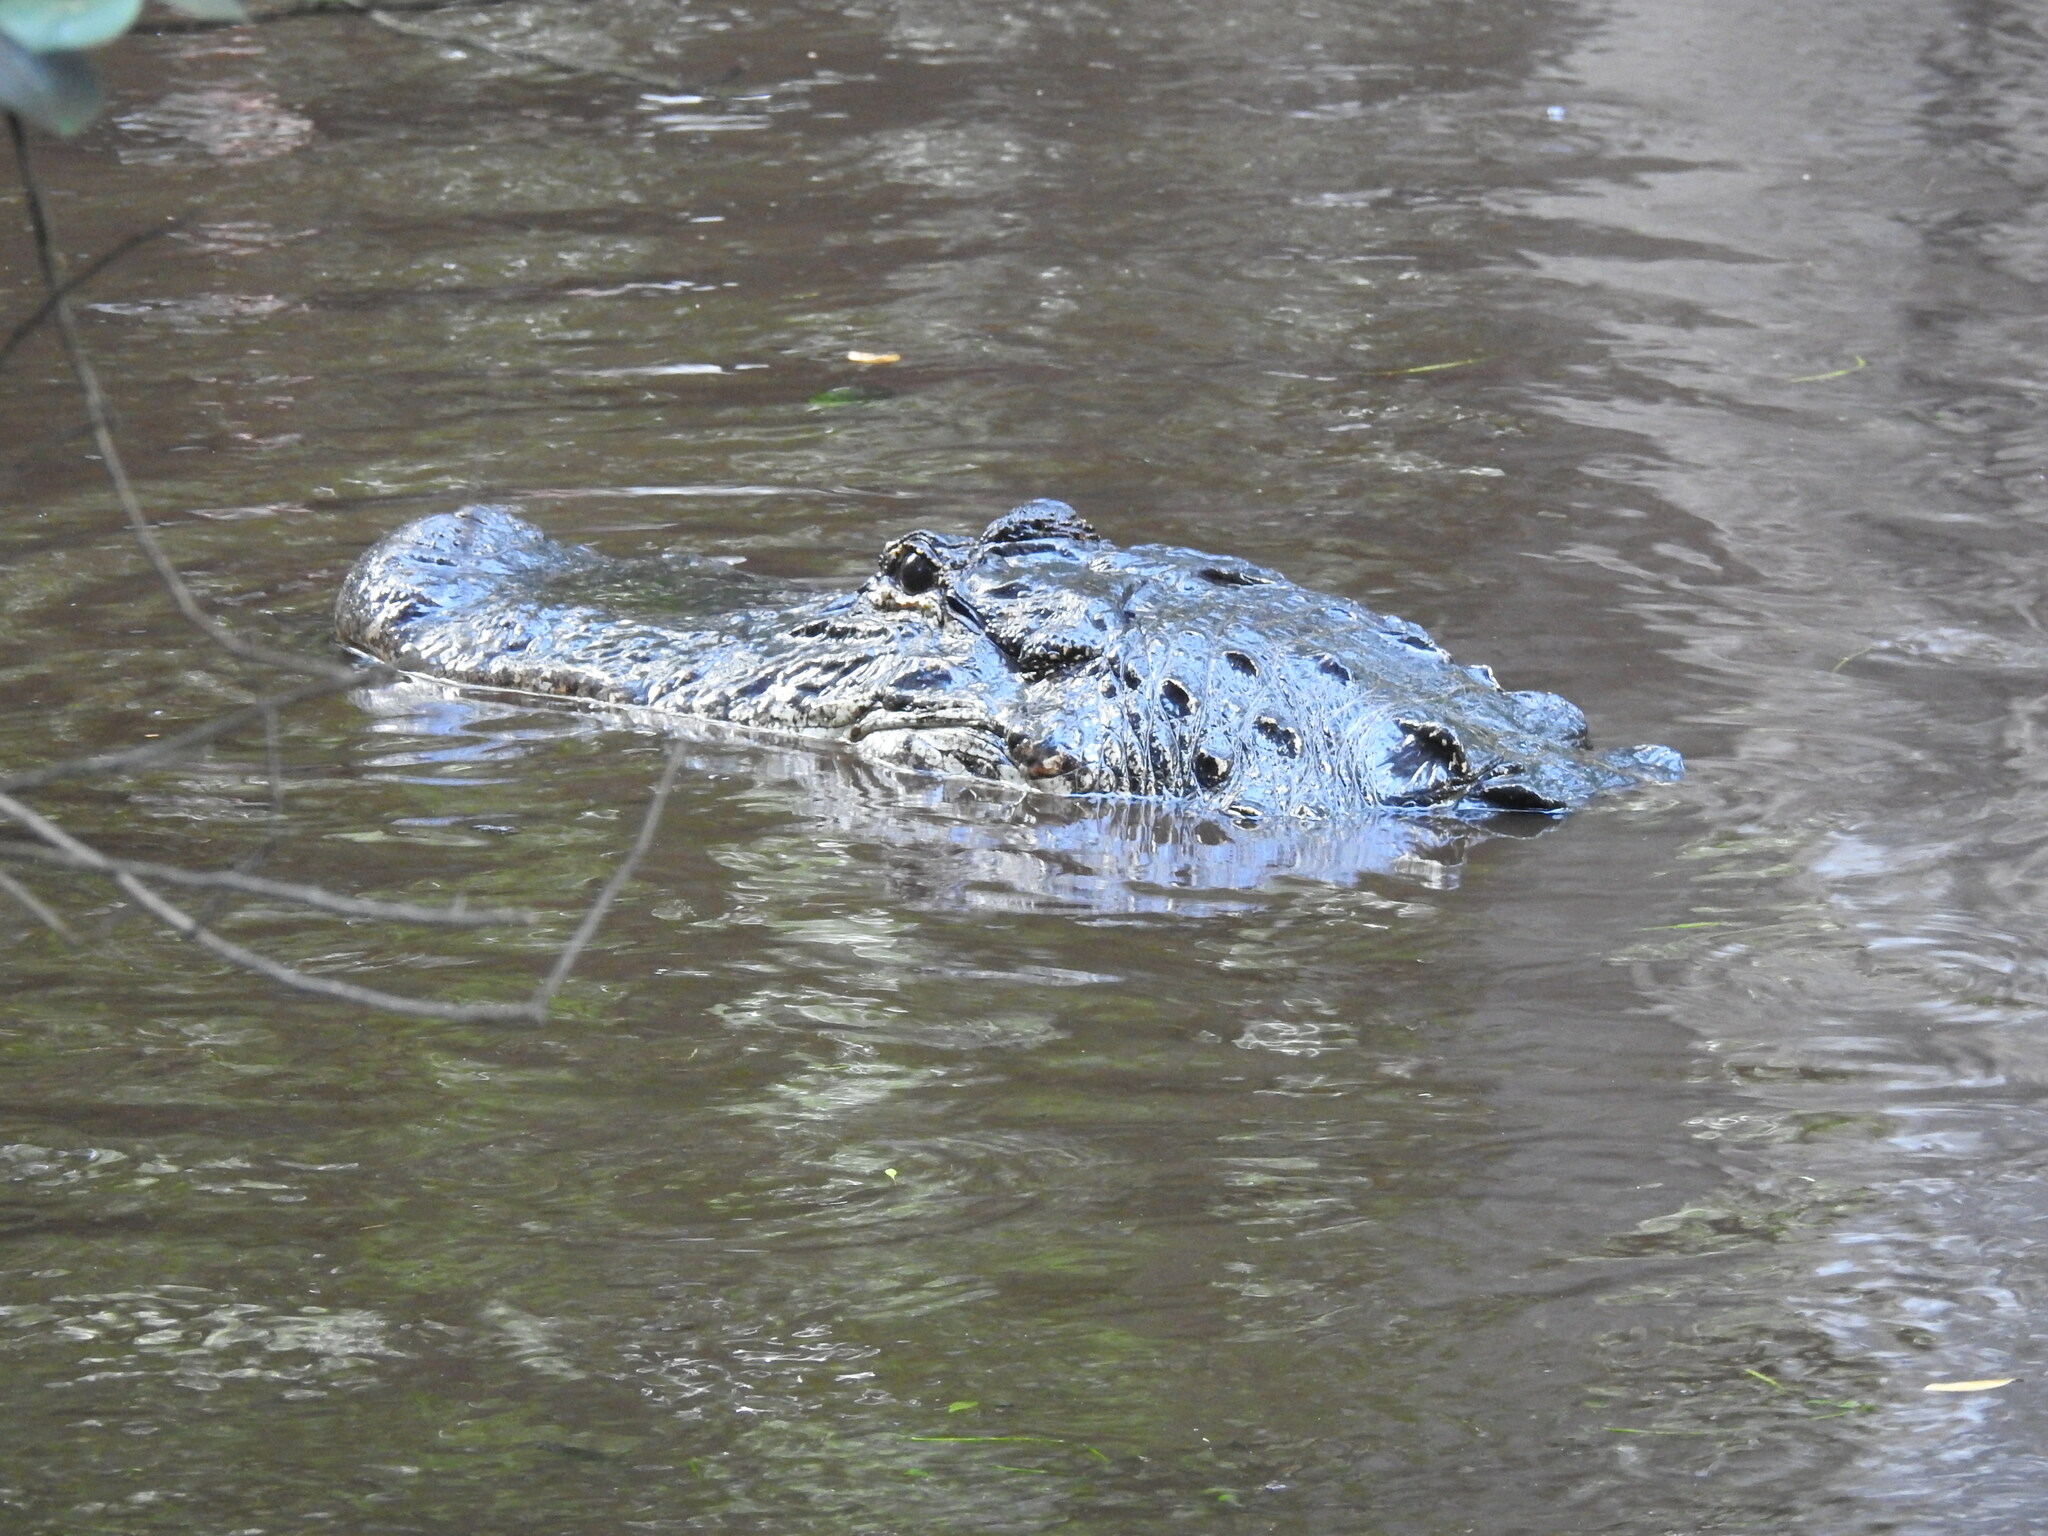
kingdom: Animalia
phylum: Chordata
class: Crocodylia
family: Alligatoridae
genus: Alligator
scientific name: Alligator mississippiensis
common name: American alligator
